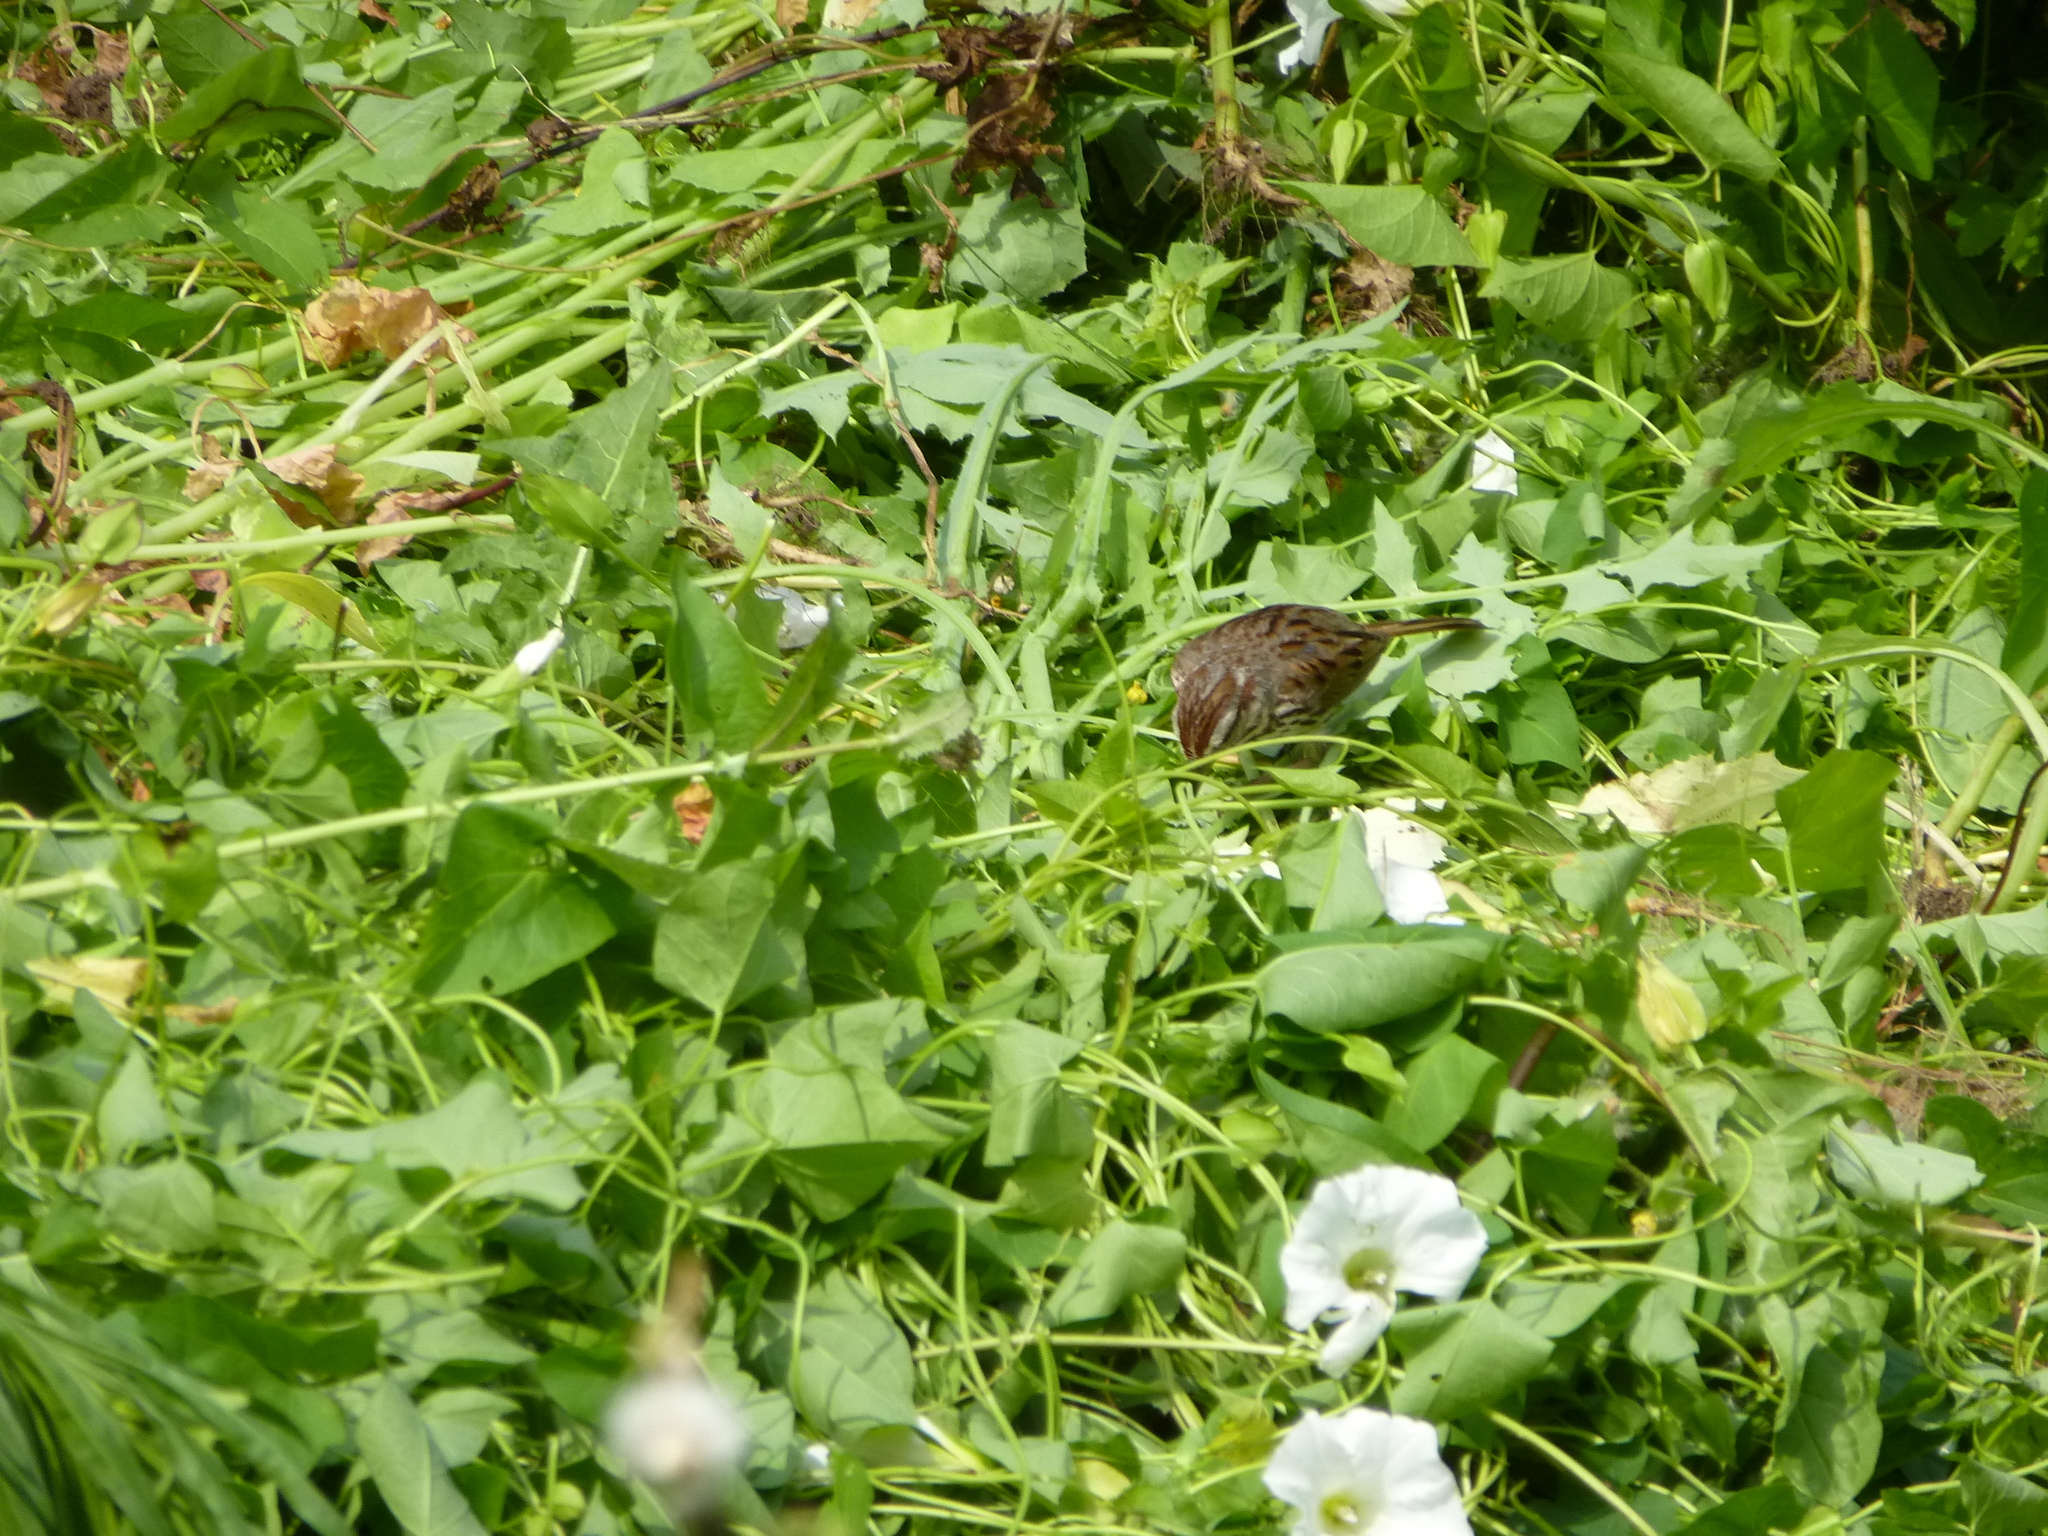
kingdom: Animalia
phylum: Chordata
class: Aves
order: Passeriformes
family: Passerellidae
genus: Melospiza
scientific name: Melospiza melodia
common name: Song sparrow
